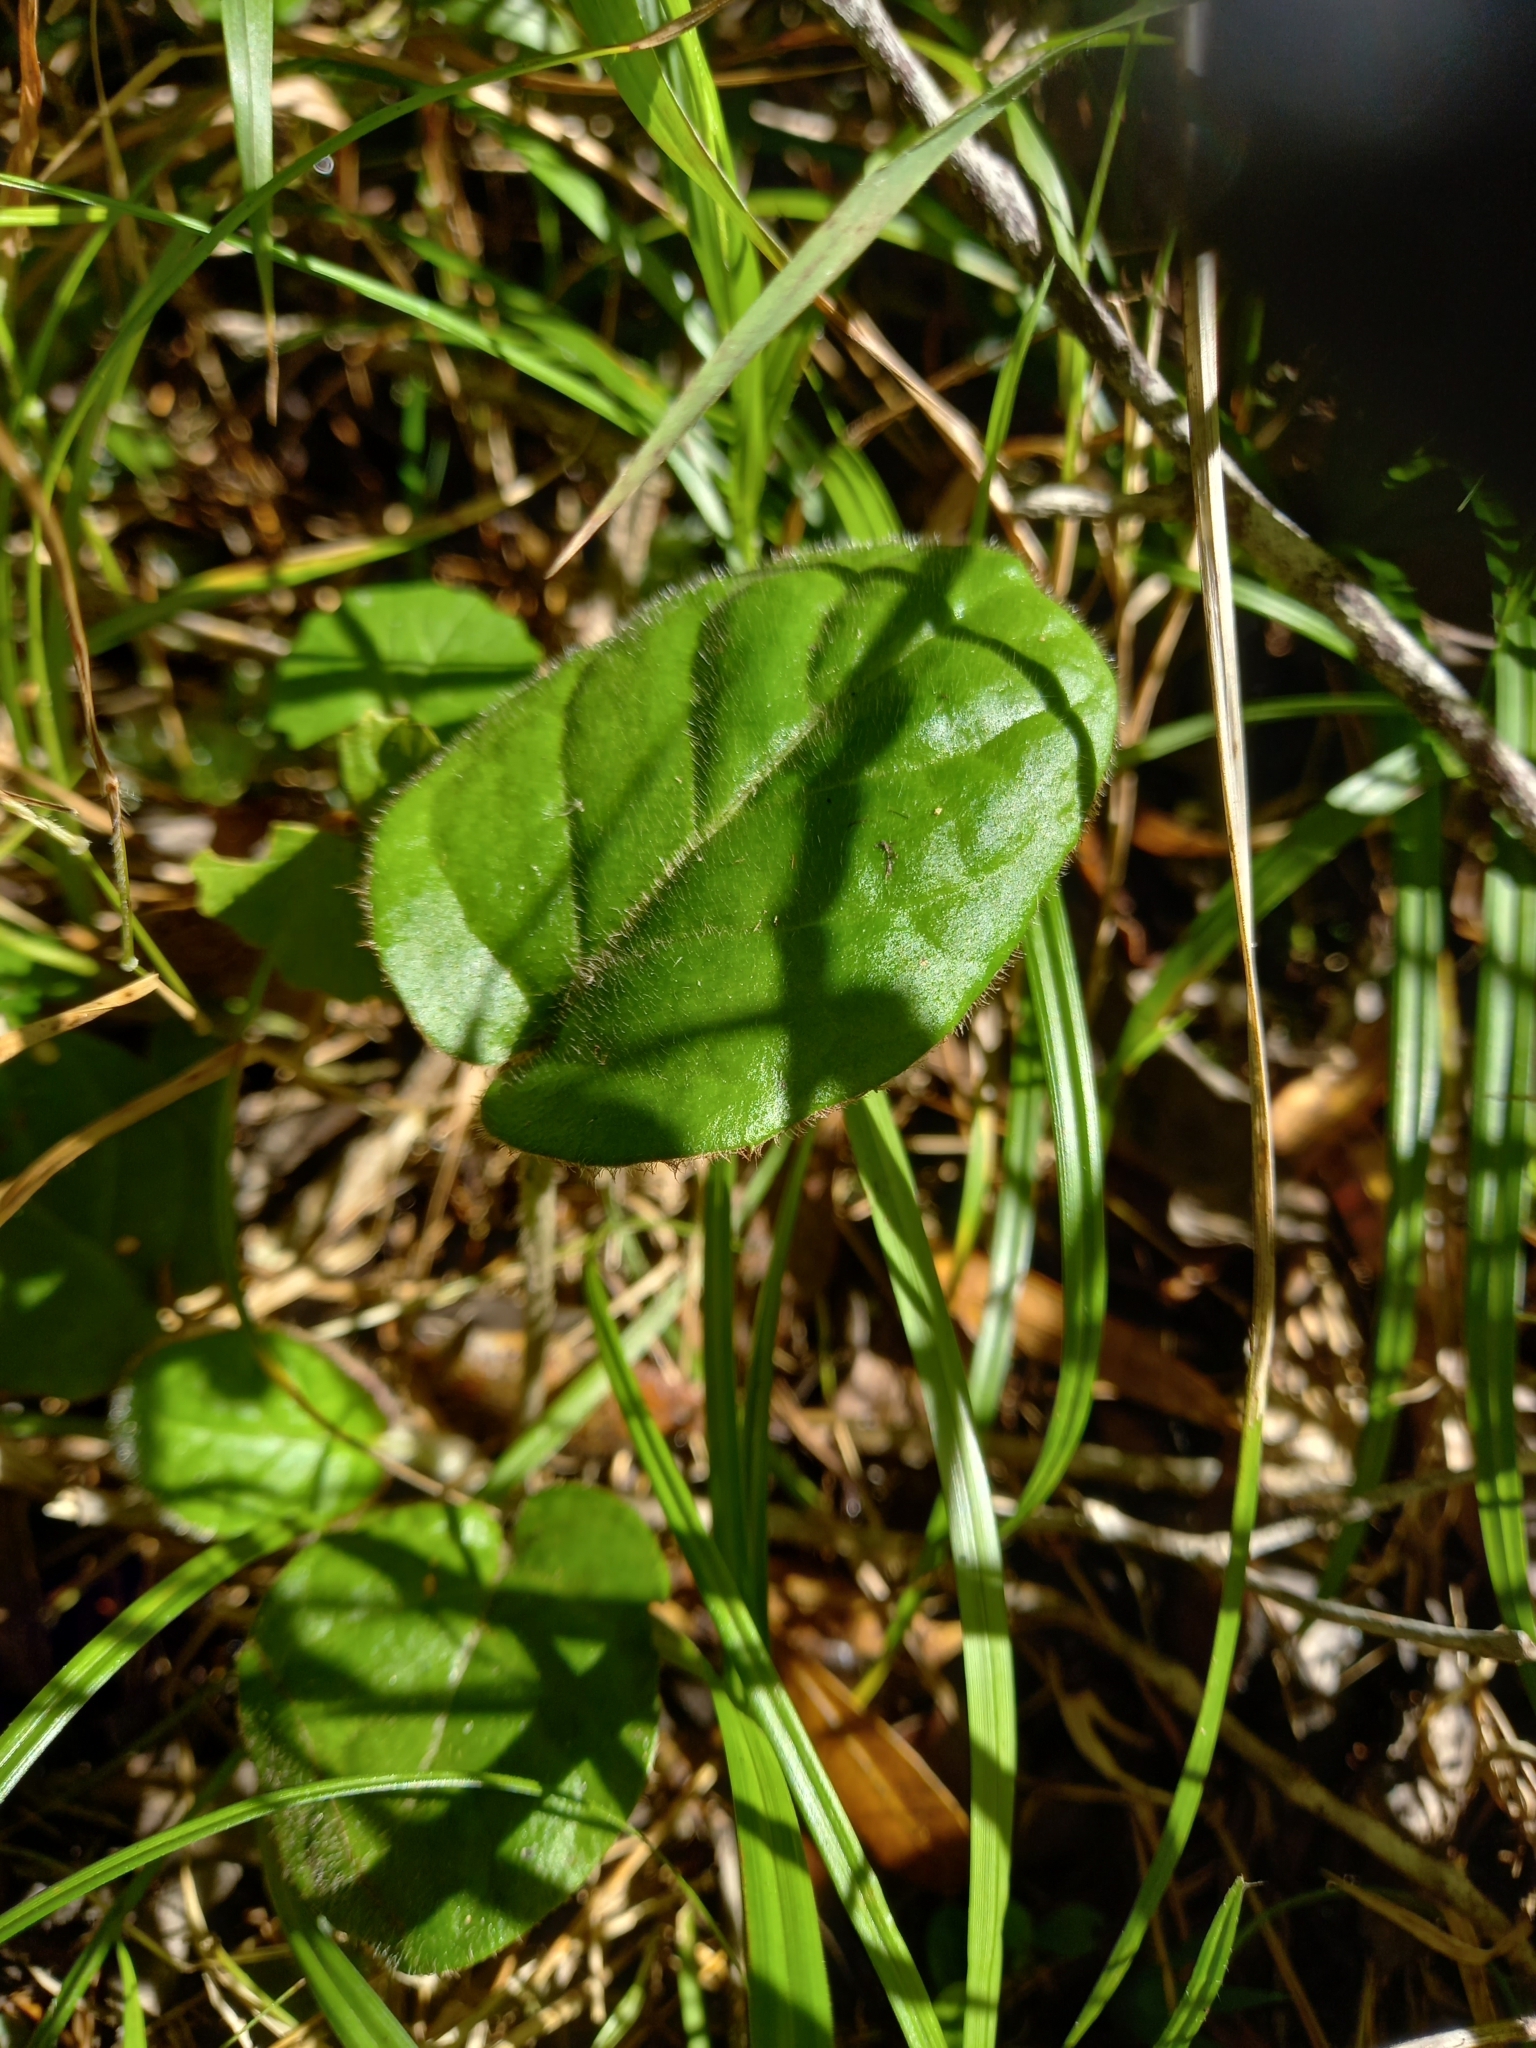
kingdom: Plantae
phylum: Tracheophyta
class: Magnoliopsida
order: Asterales
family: Asteraceae
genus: Piloselloides
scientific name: Piloselloides cordata
